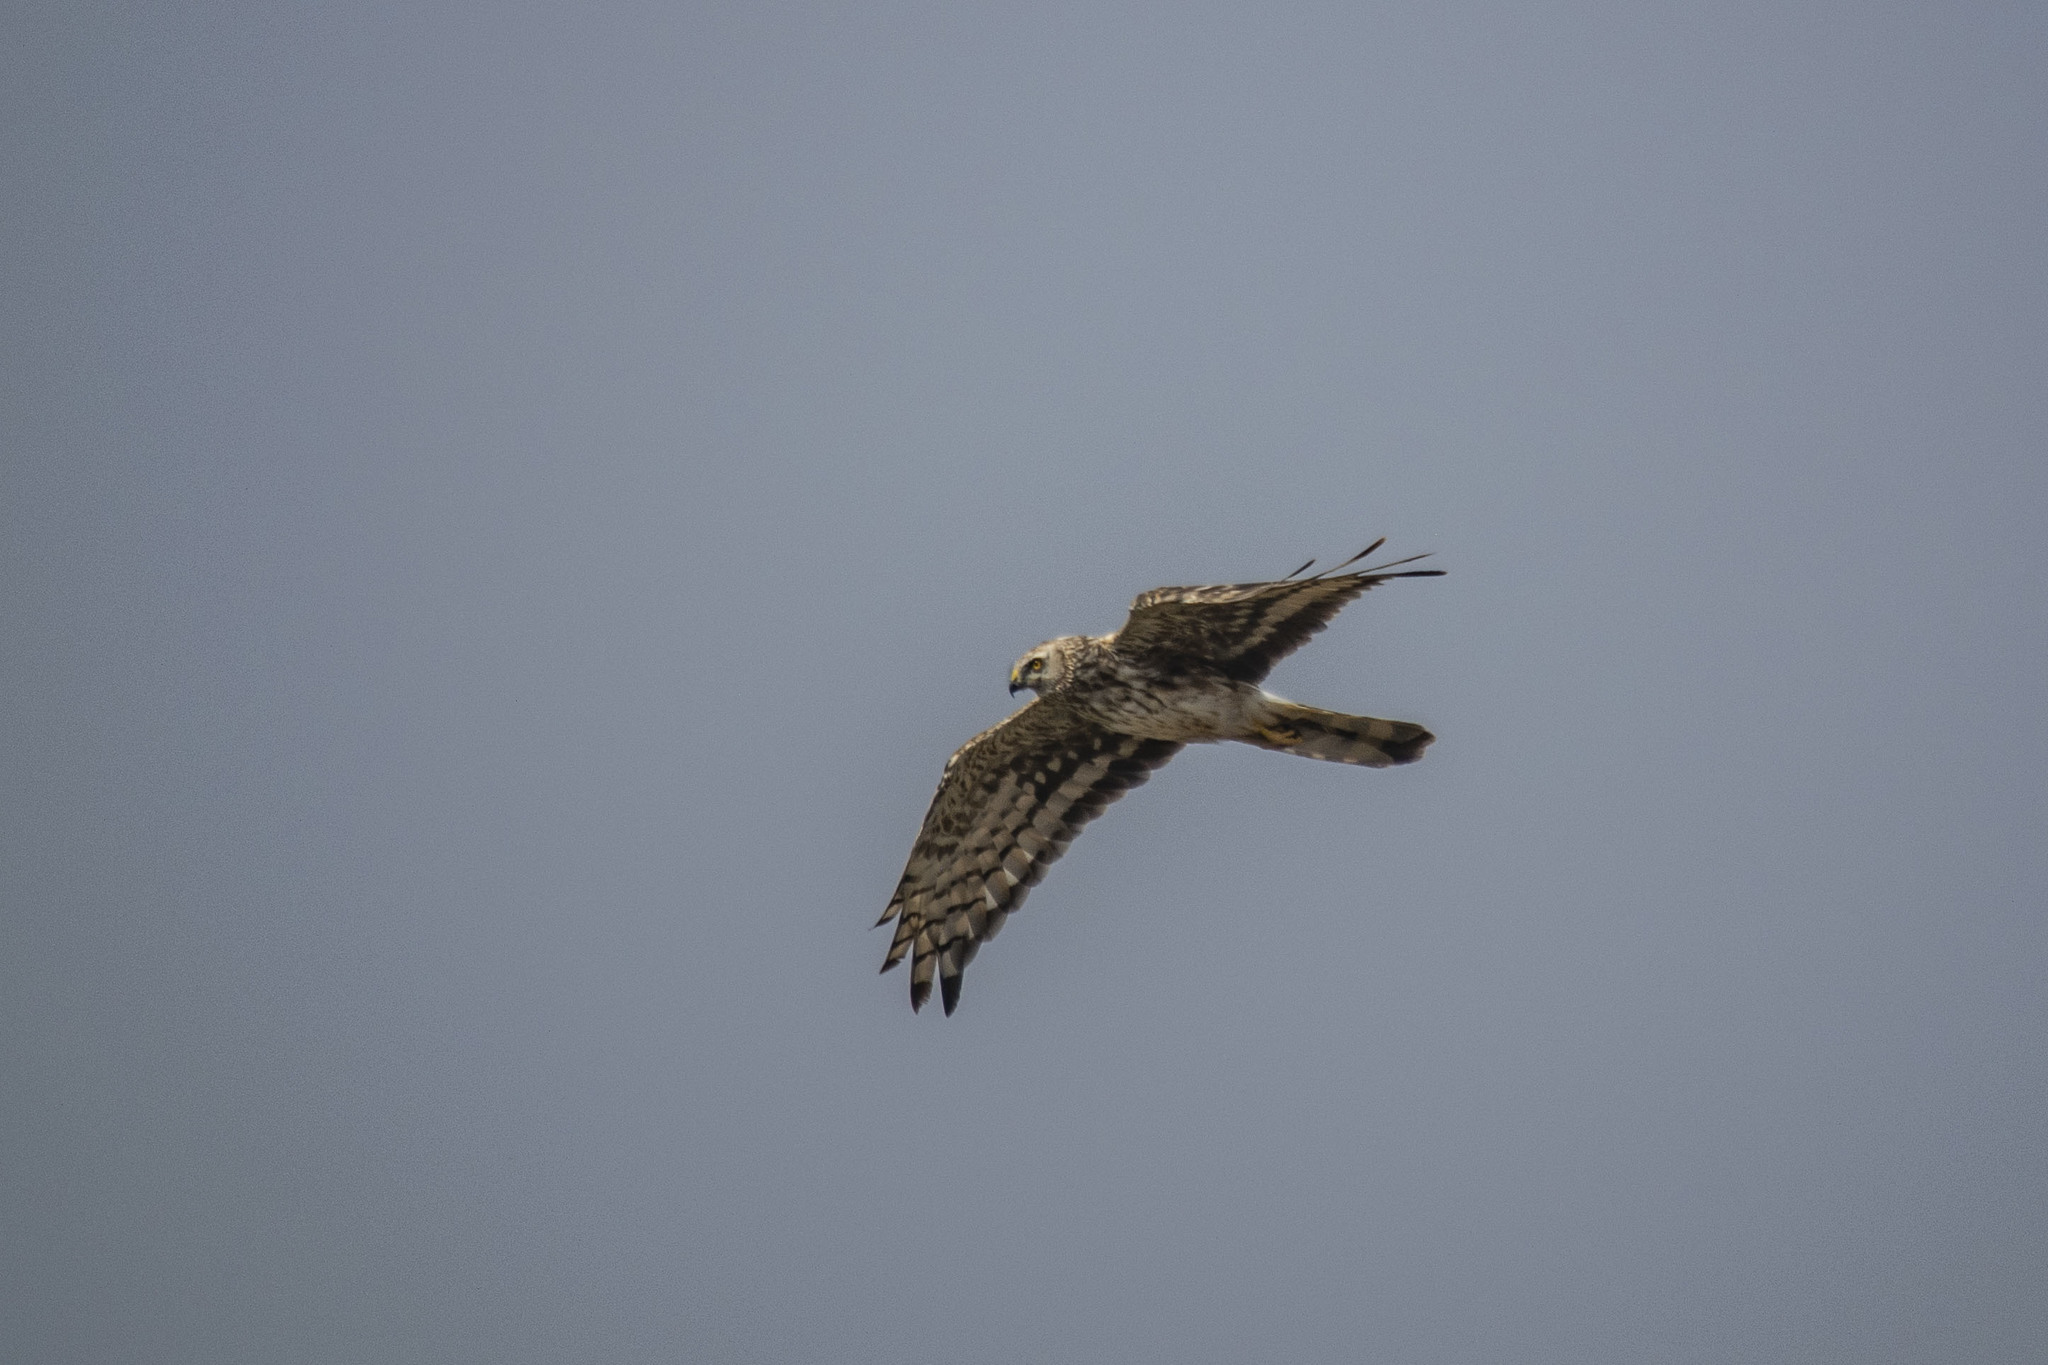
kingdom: Animalia
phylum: Chordata
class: Aves
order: Accipitriformes
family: Accipitridae
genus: Circus
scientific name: Circus pygargus
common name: Montagu's harrier
